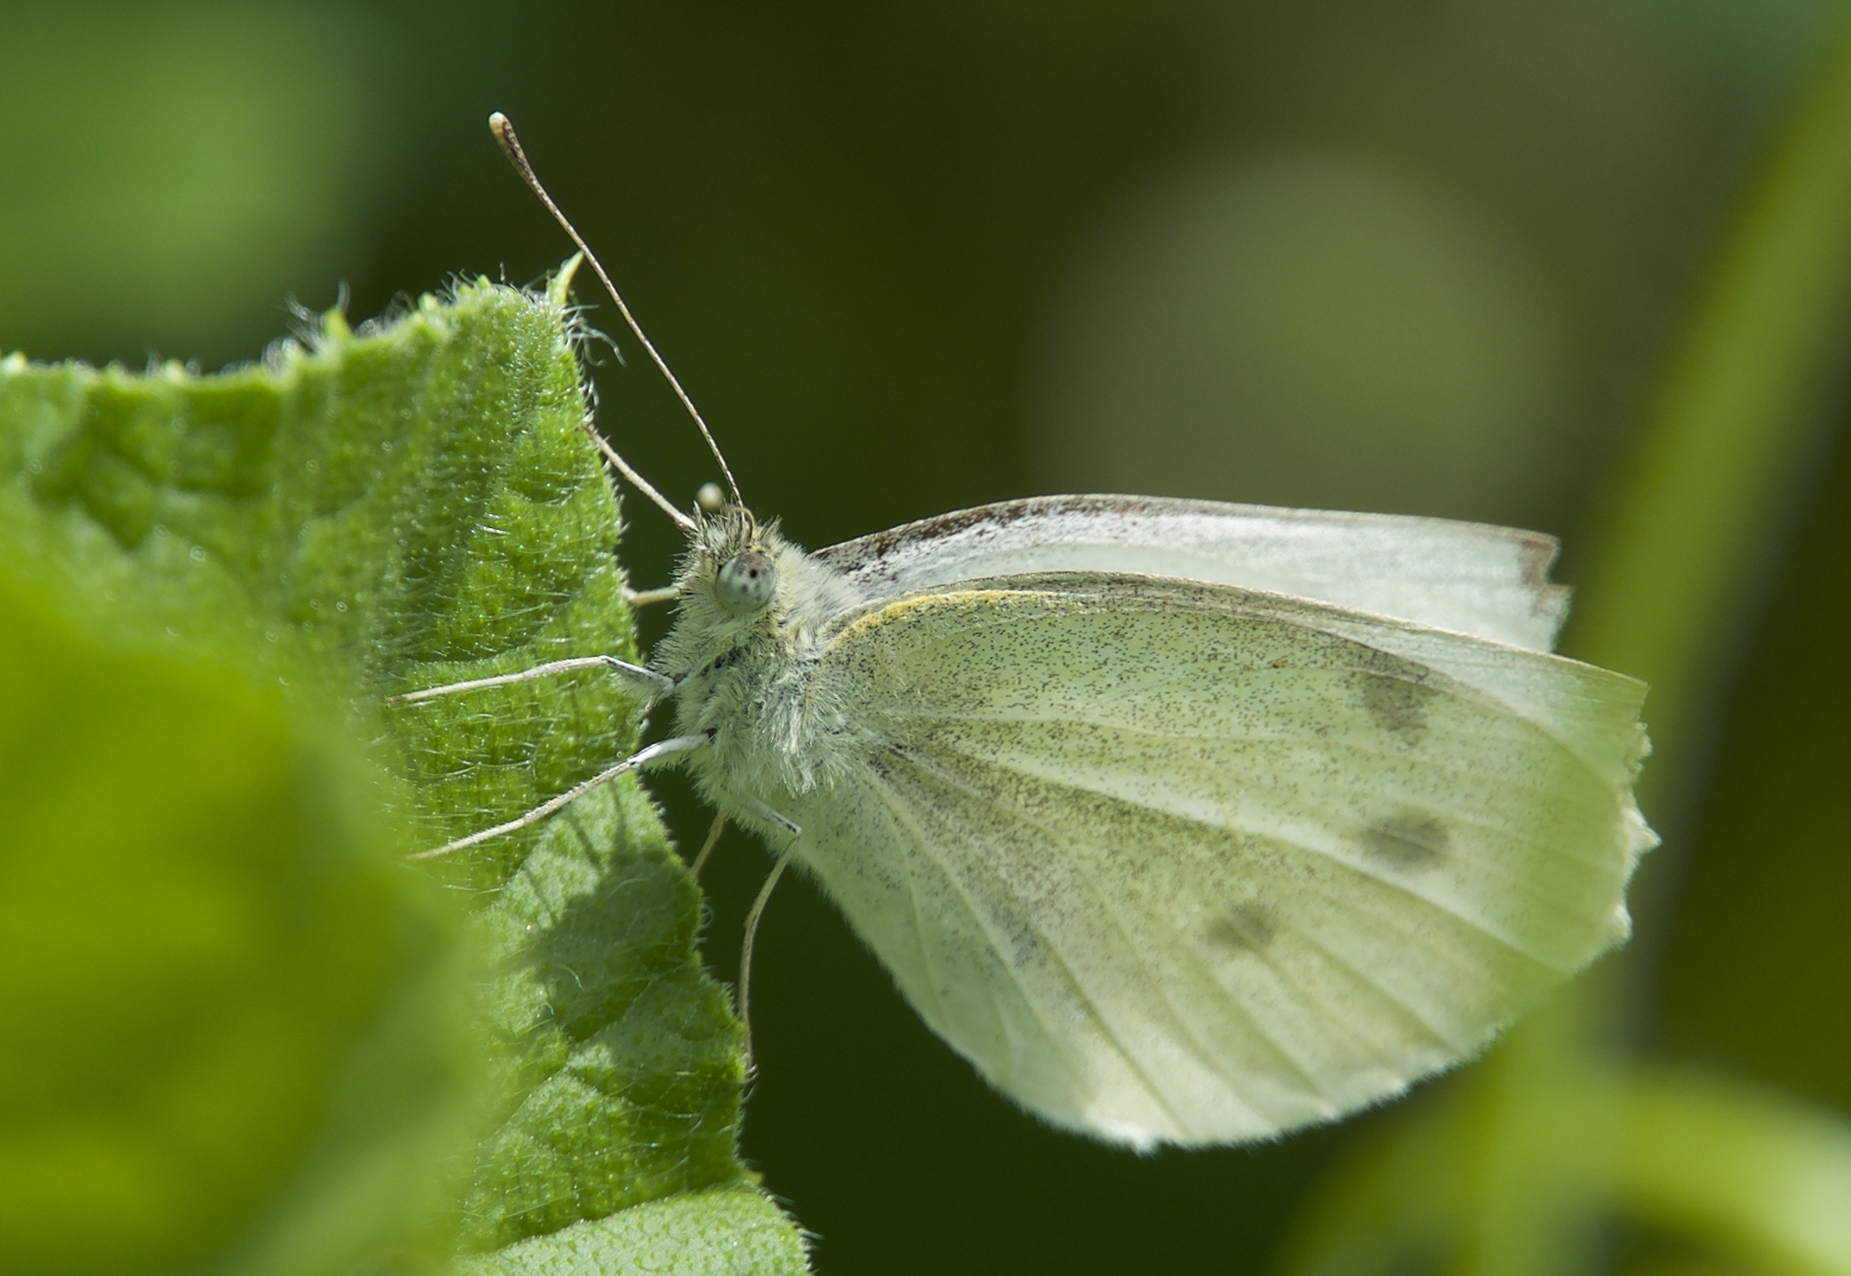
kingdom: Animalia
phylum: Arthropoda
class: Insecta
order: Lepidoptera
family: Pieridae
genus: Pieris
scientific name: Pieris rapae
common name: Small white
